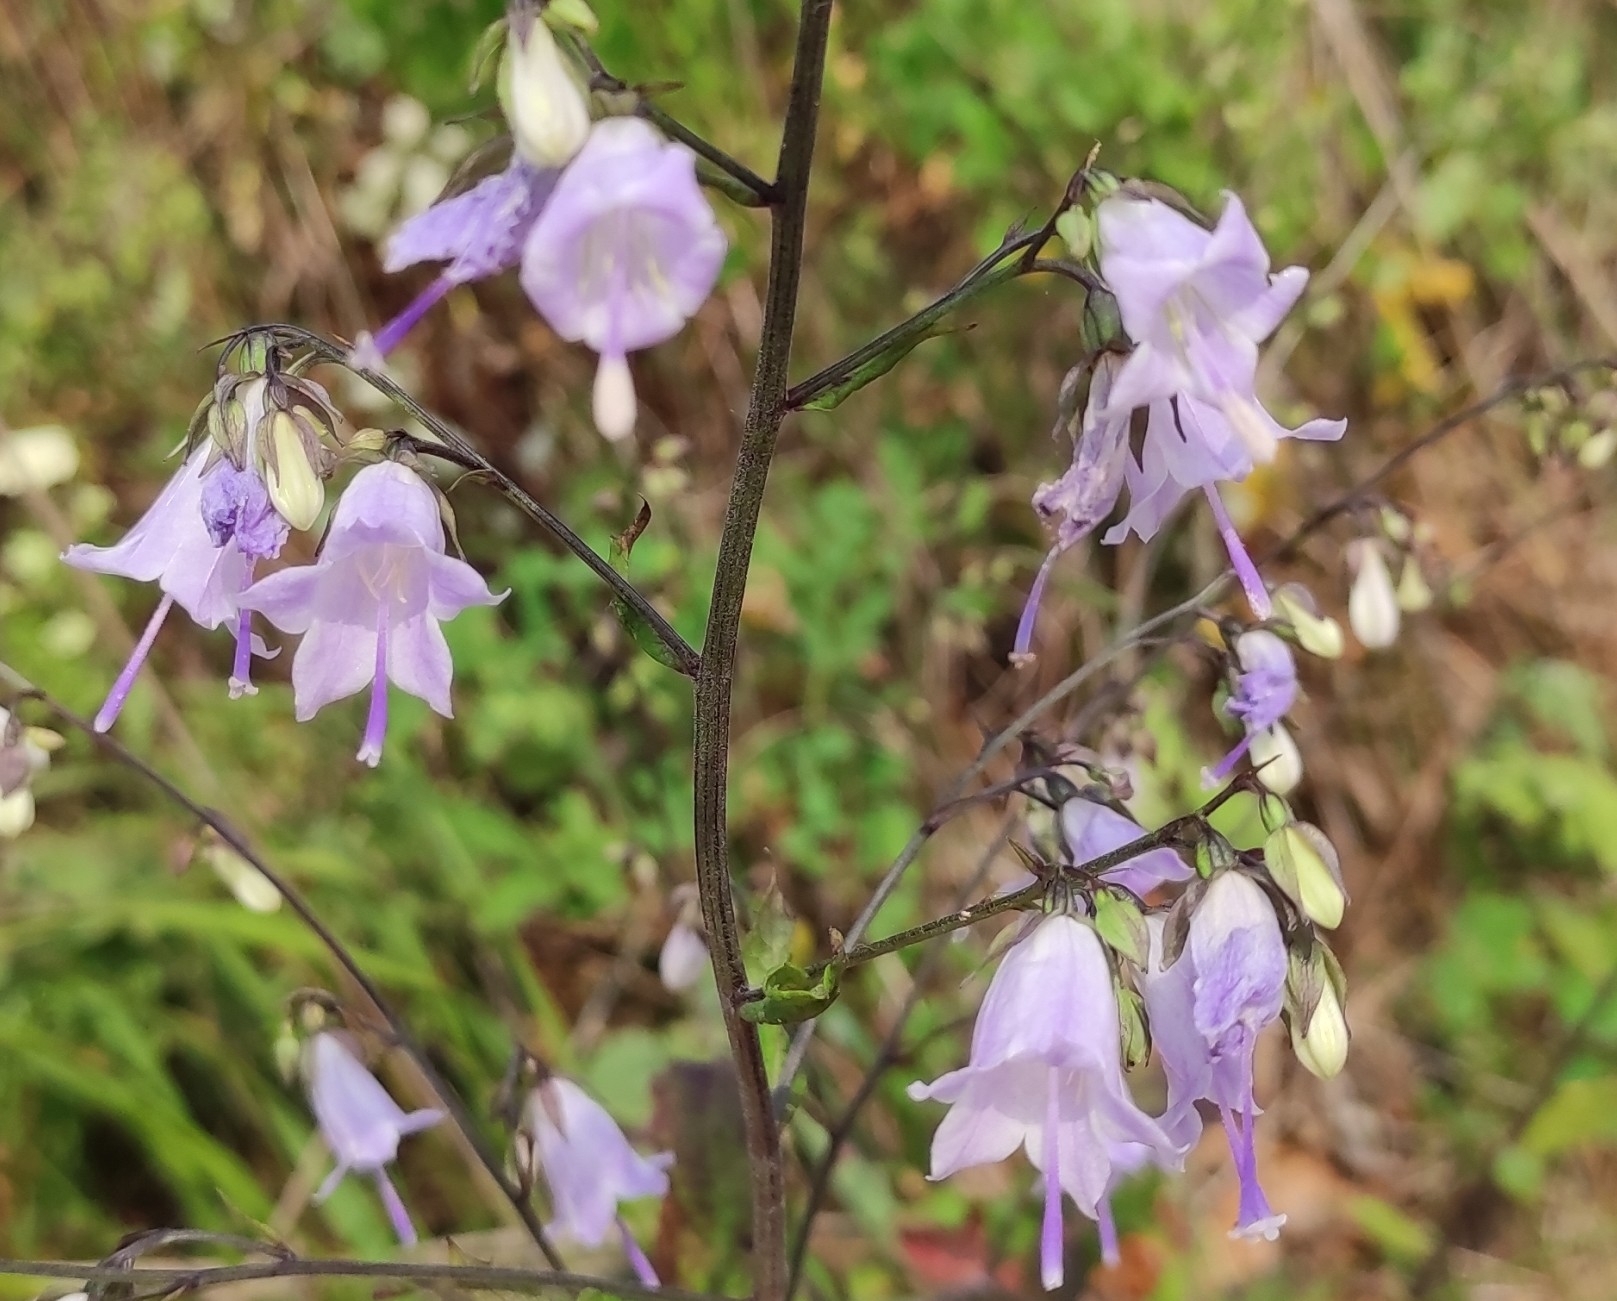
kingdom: Plantae
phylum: Tracheophyta
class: Magnoliopsida
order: Asterales
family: Campanulaceae
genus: Adenophora
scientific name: Adenophora pereskiifolia
